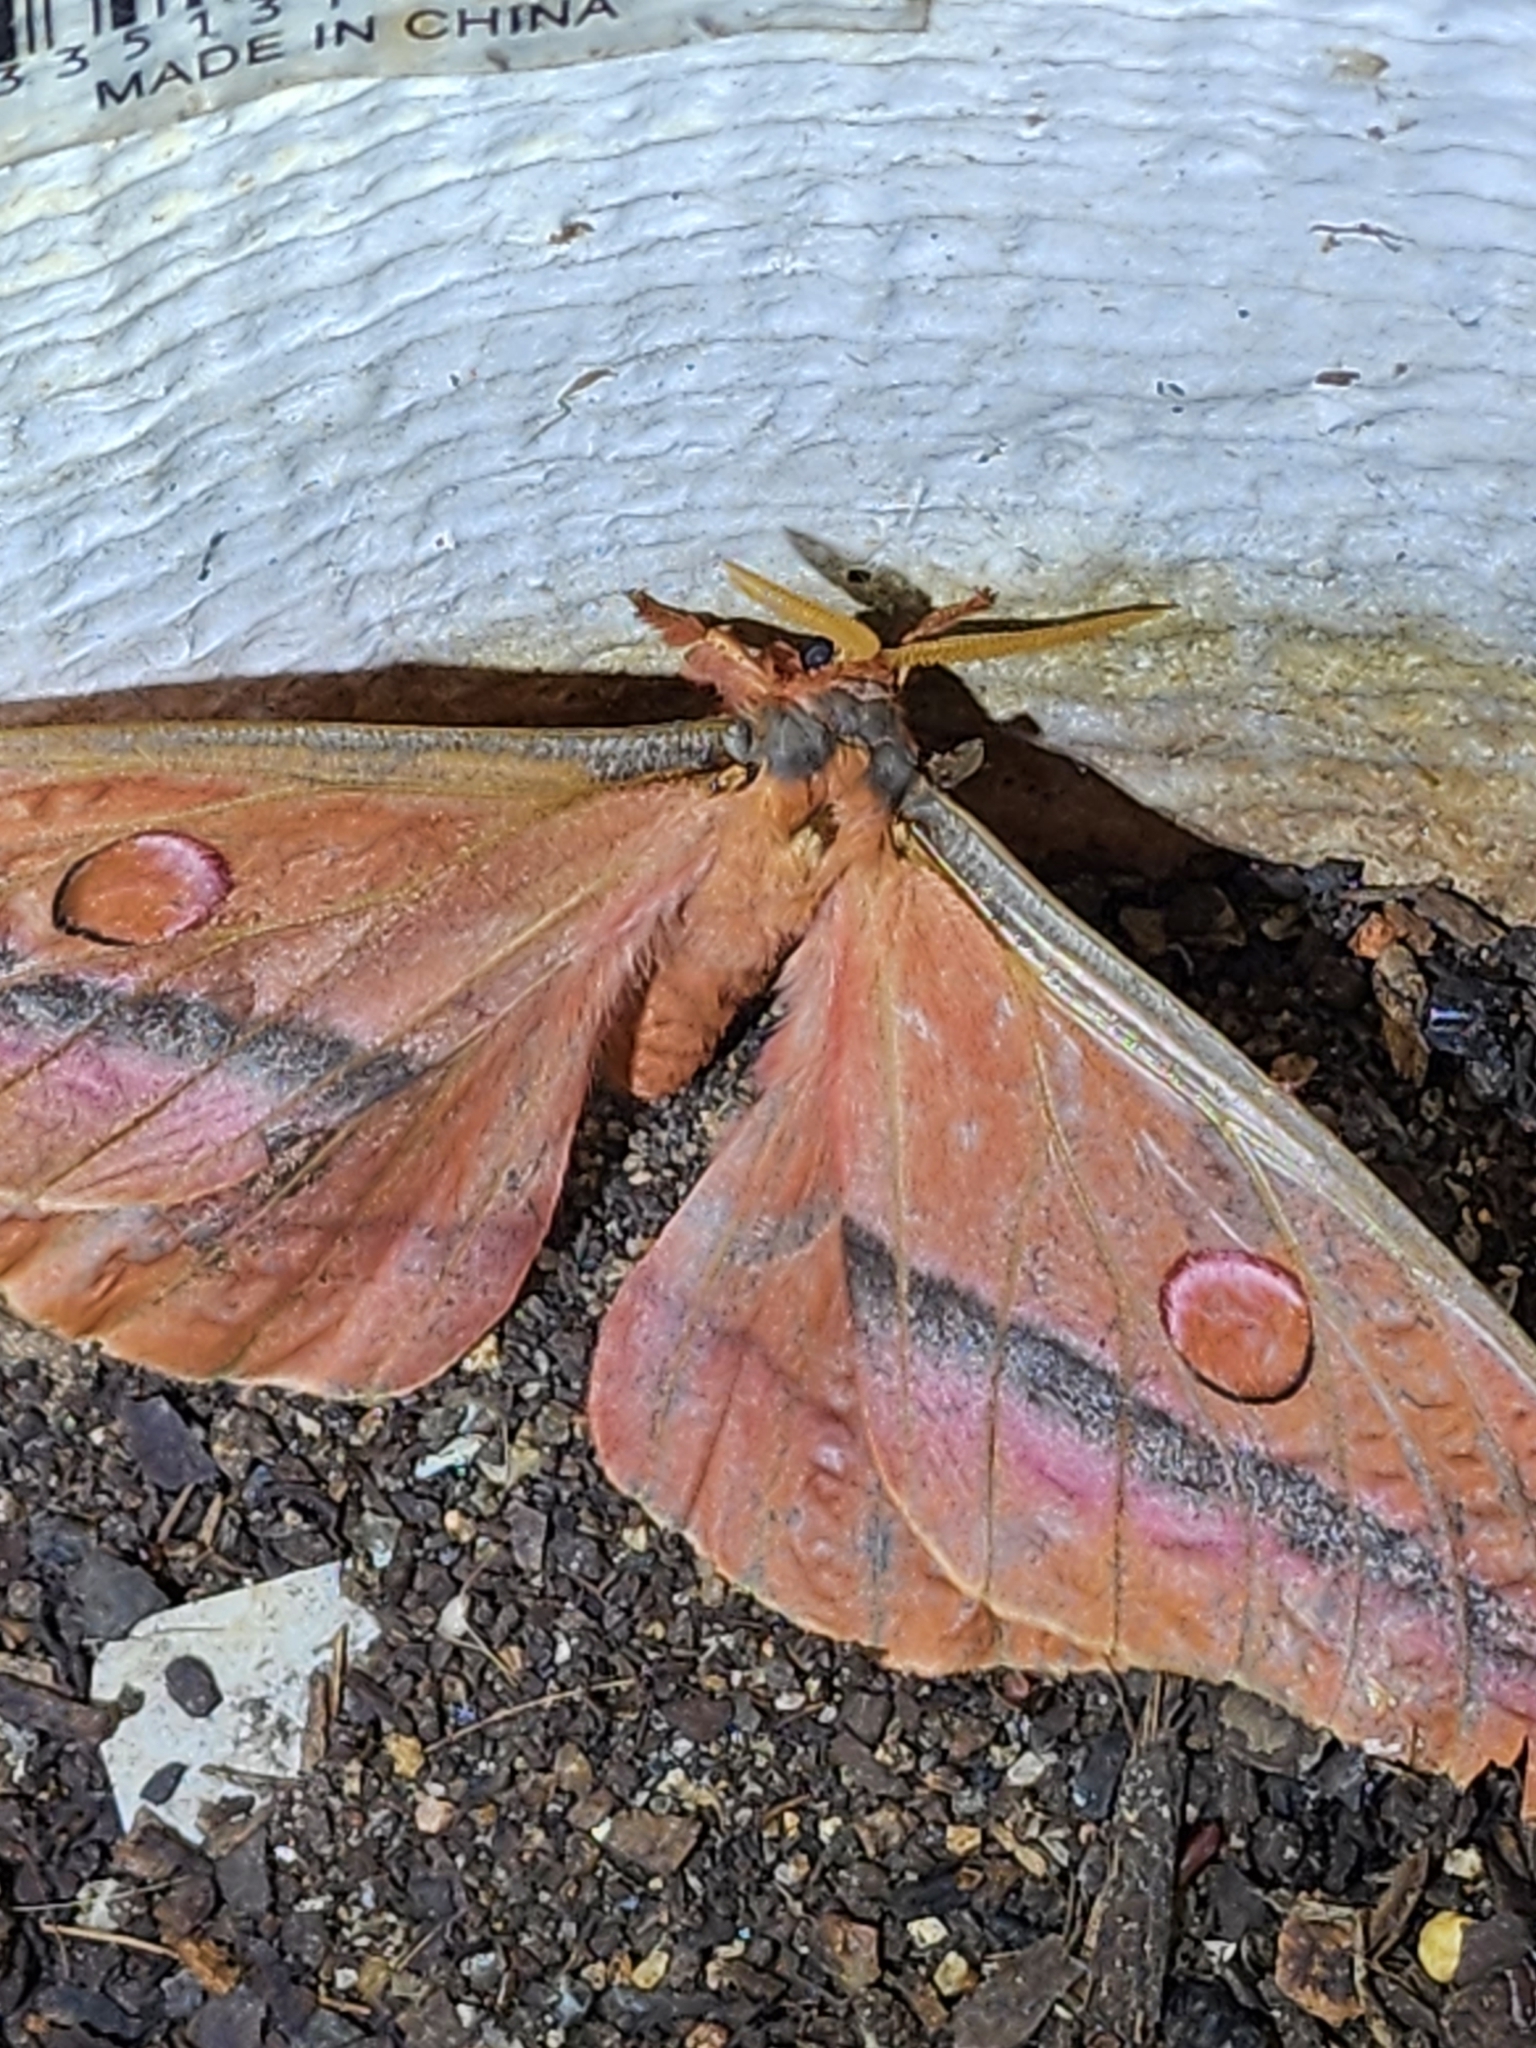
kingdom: Animalia
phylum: Arthropoda
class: Insecta
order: Lepidoptera
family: Saturniidae
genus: Opodiphthera
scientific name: Opodiphthera
